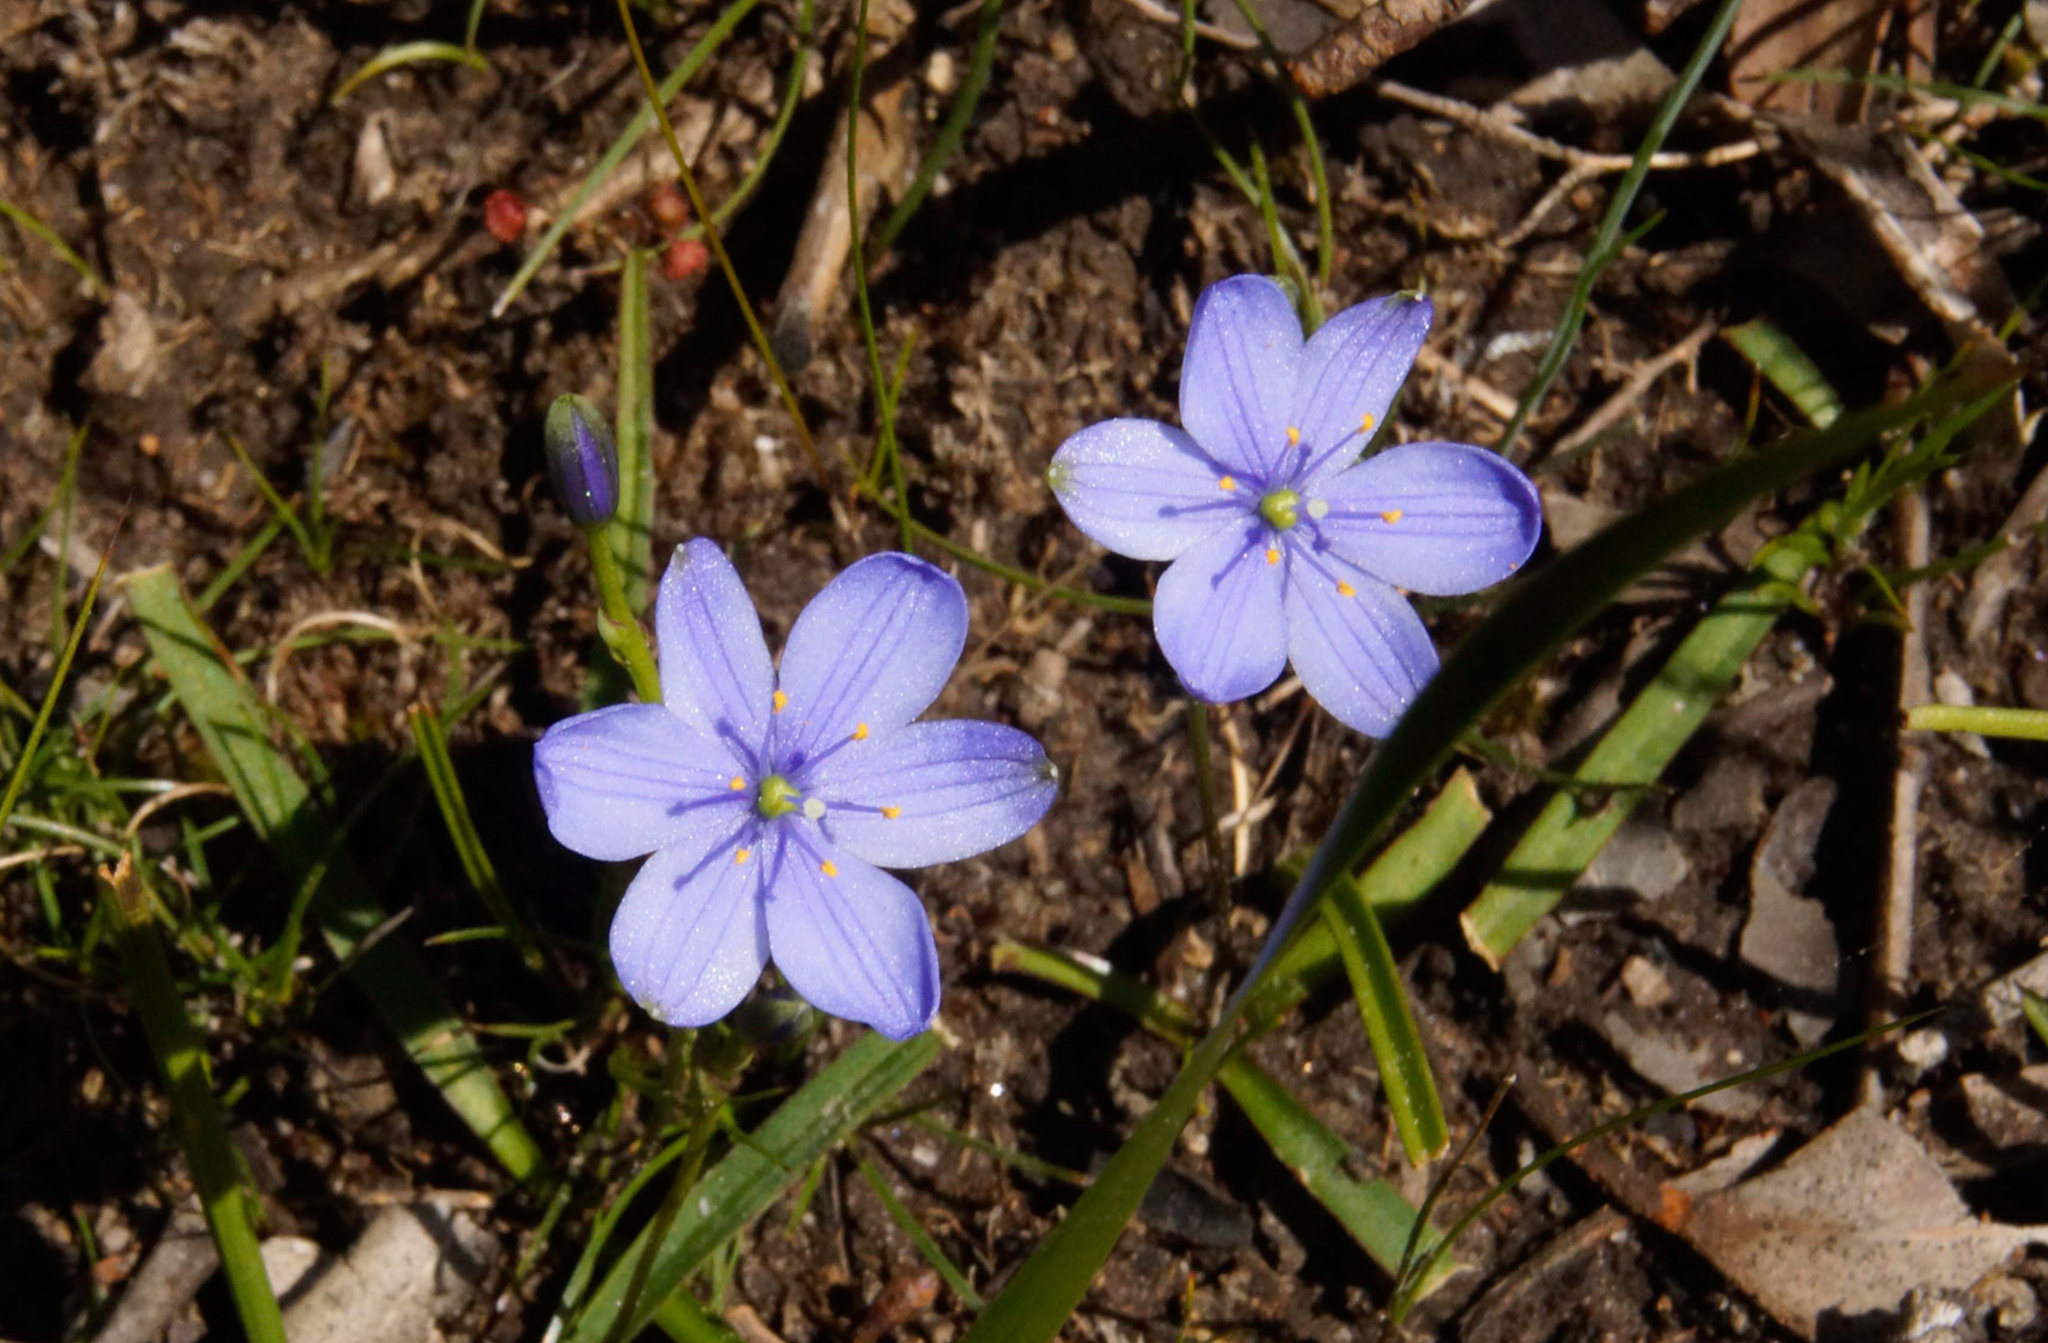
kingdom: Plantae
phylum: Tracheophyta
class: Liliopsida
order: Asparagales
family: Asphodelaceae
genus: Chamaescilla
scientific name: Chamaescilla corymbosa
